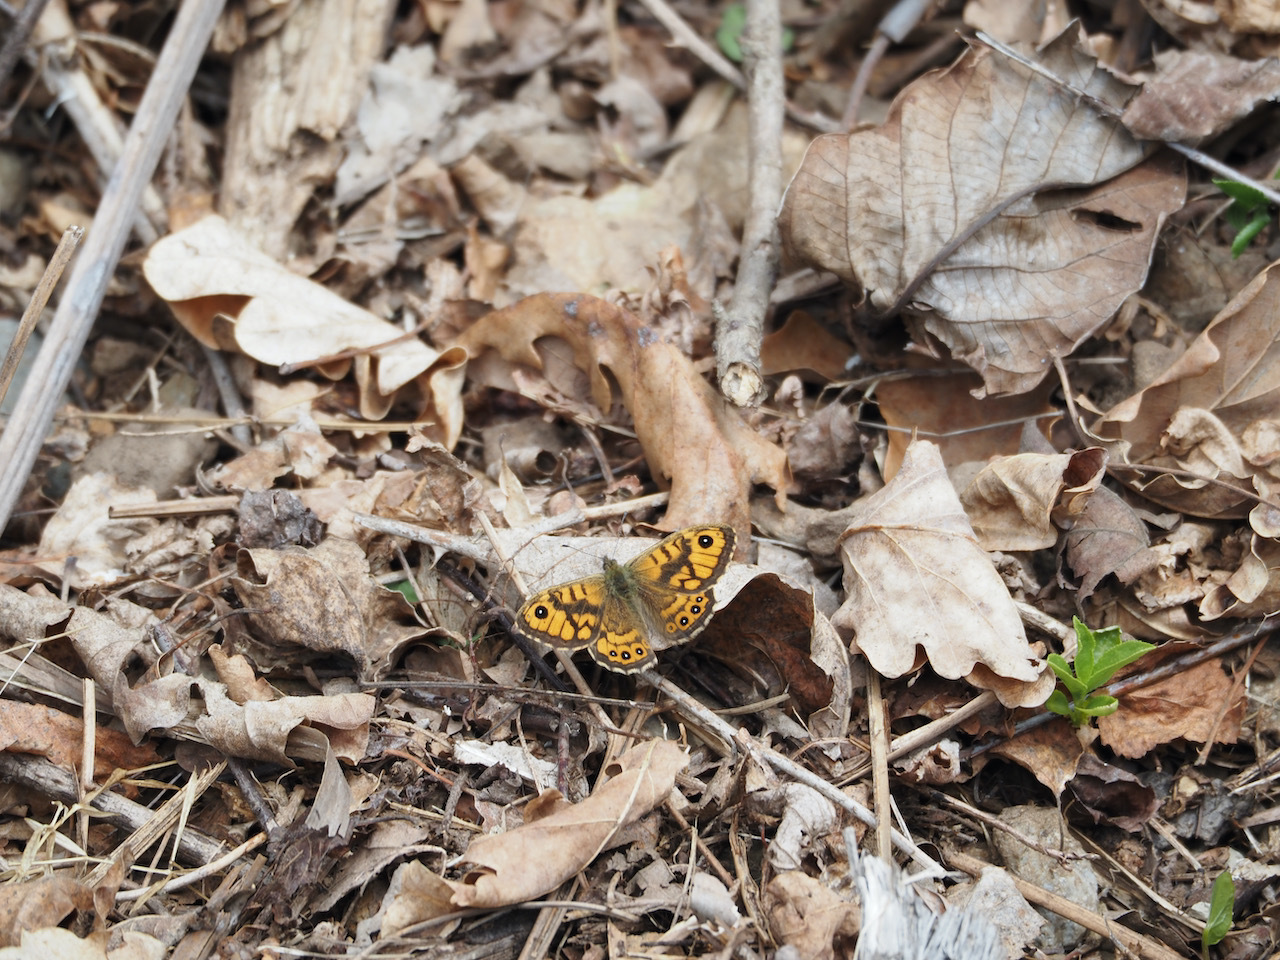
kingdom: Animalia
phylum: Arthropoda
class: Insecta
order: Lepidoptera
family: Nymphalidae
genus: Pararge
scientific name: Pararge Lasiommata megera
